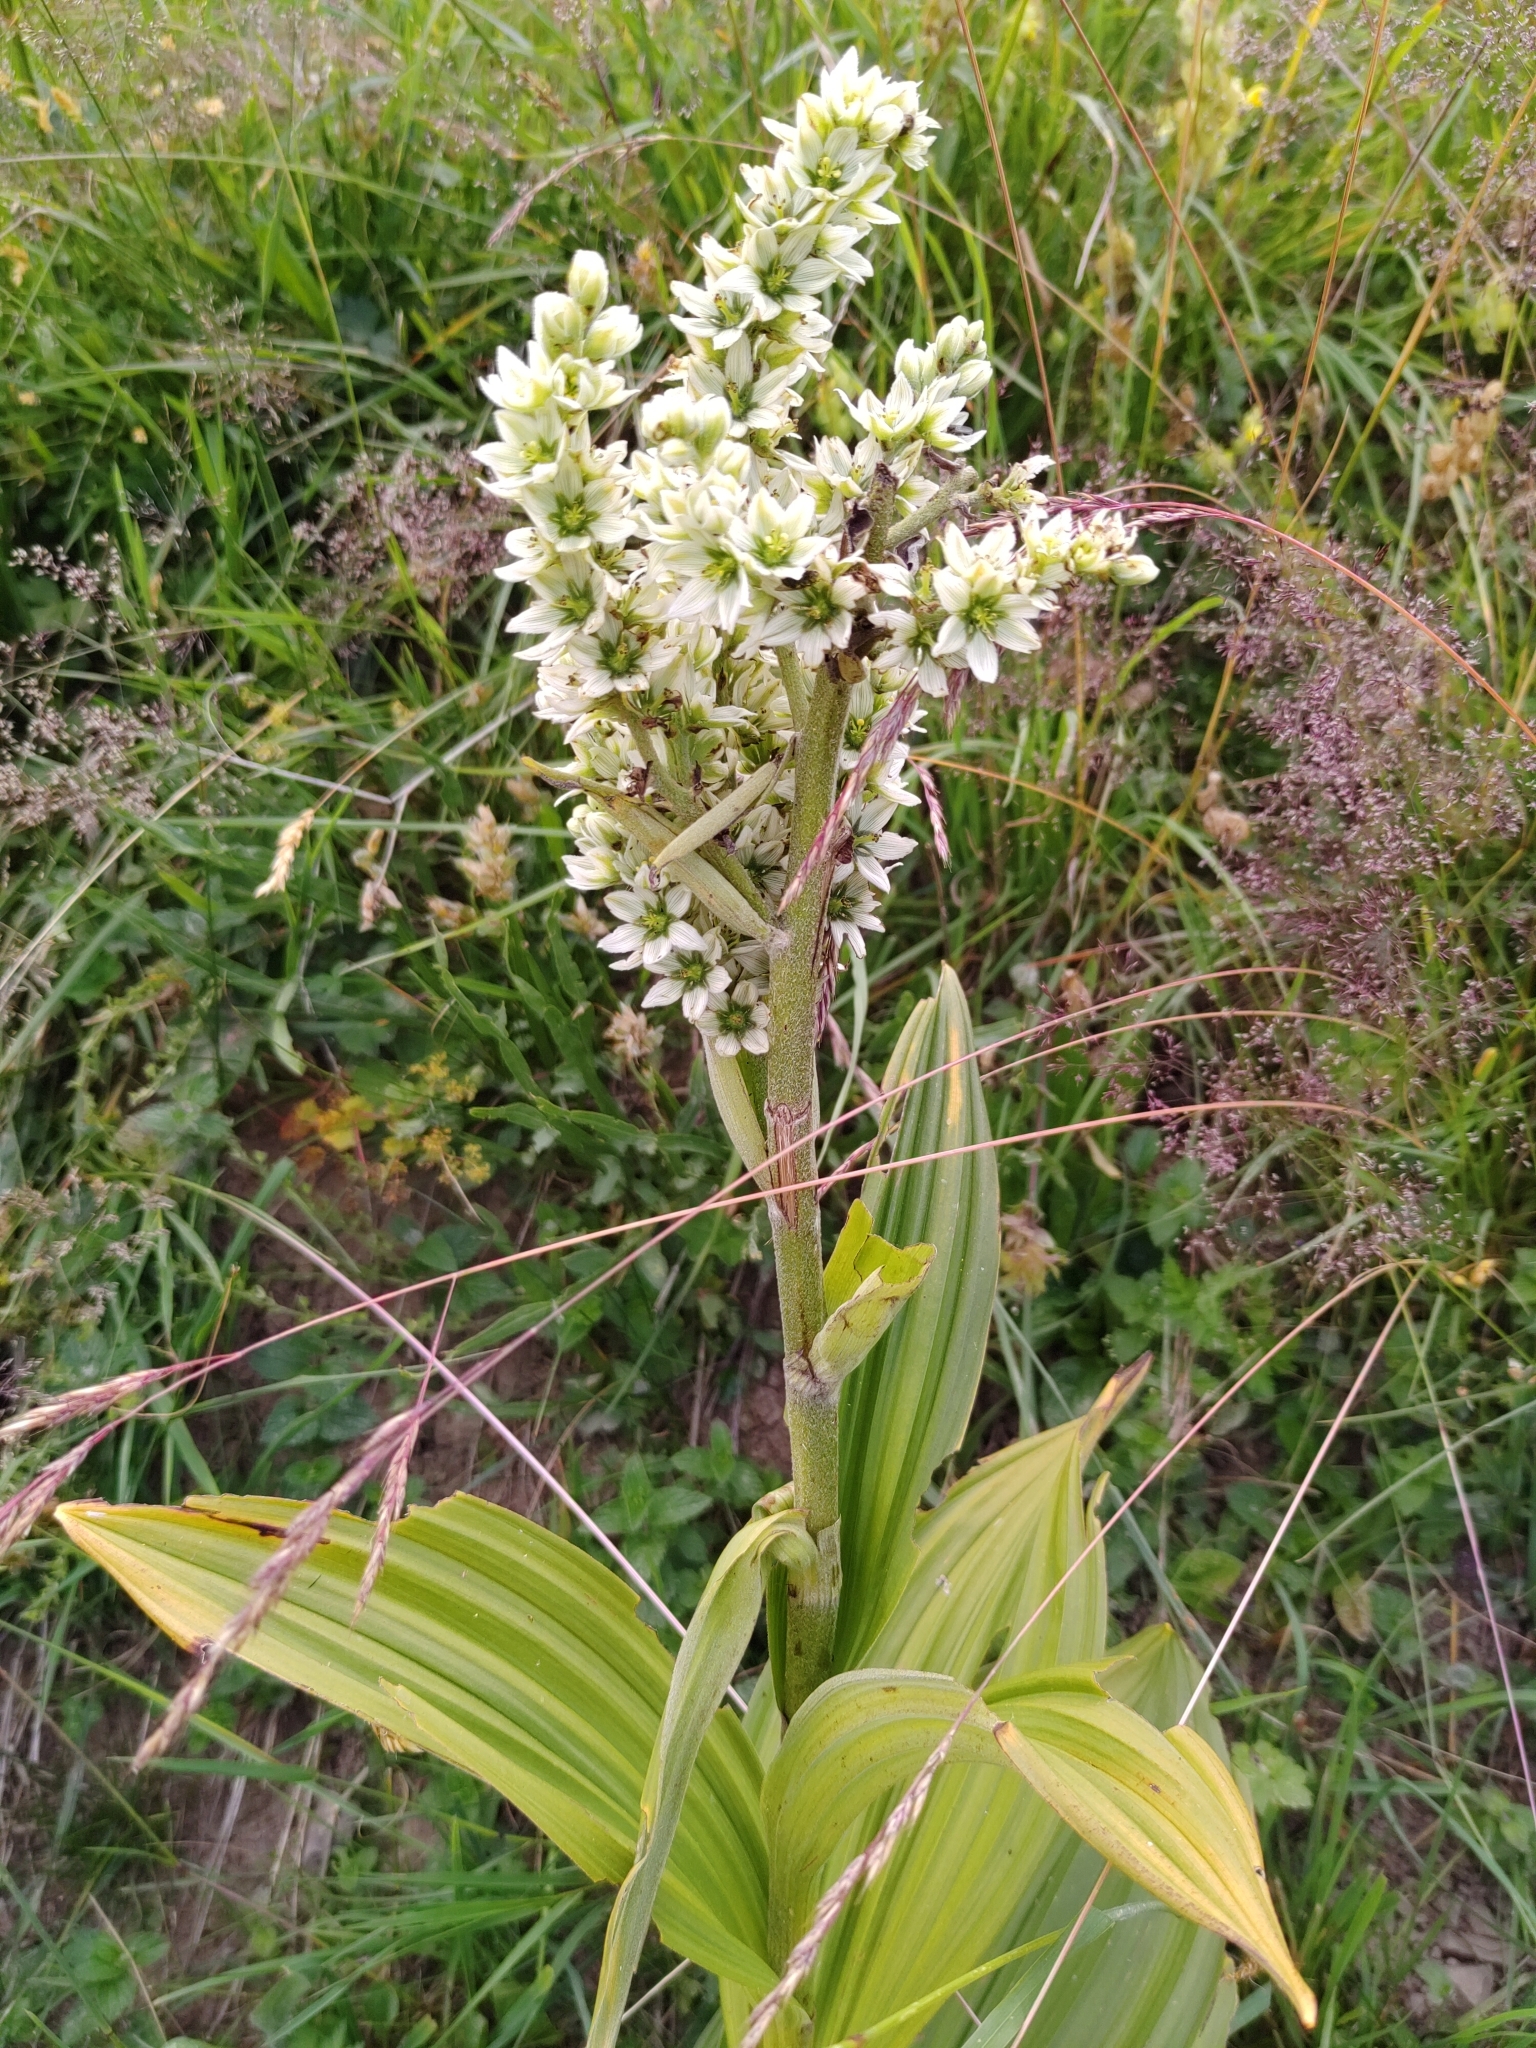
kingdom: Plantae
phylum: Tracheophyta
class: Liliopsida
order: Liliales
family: Melanthiaceae
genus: Veratrum
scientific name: Veratrum album
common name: White veratrum
